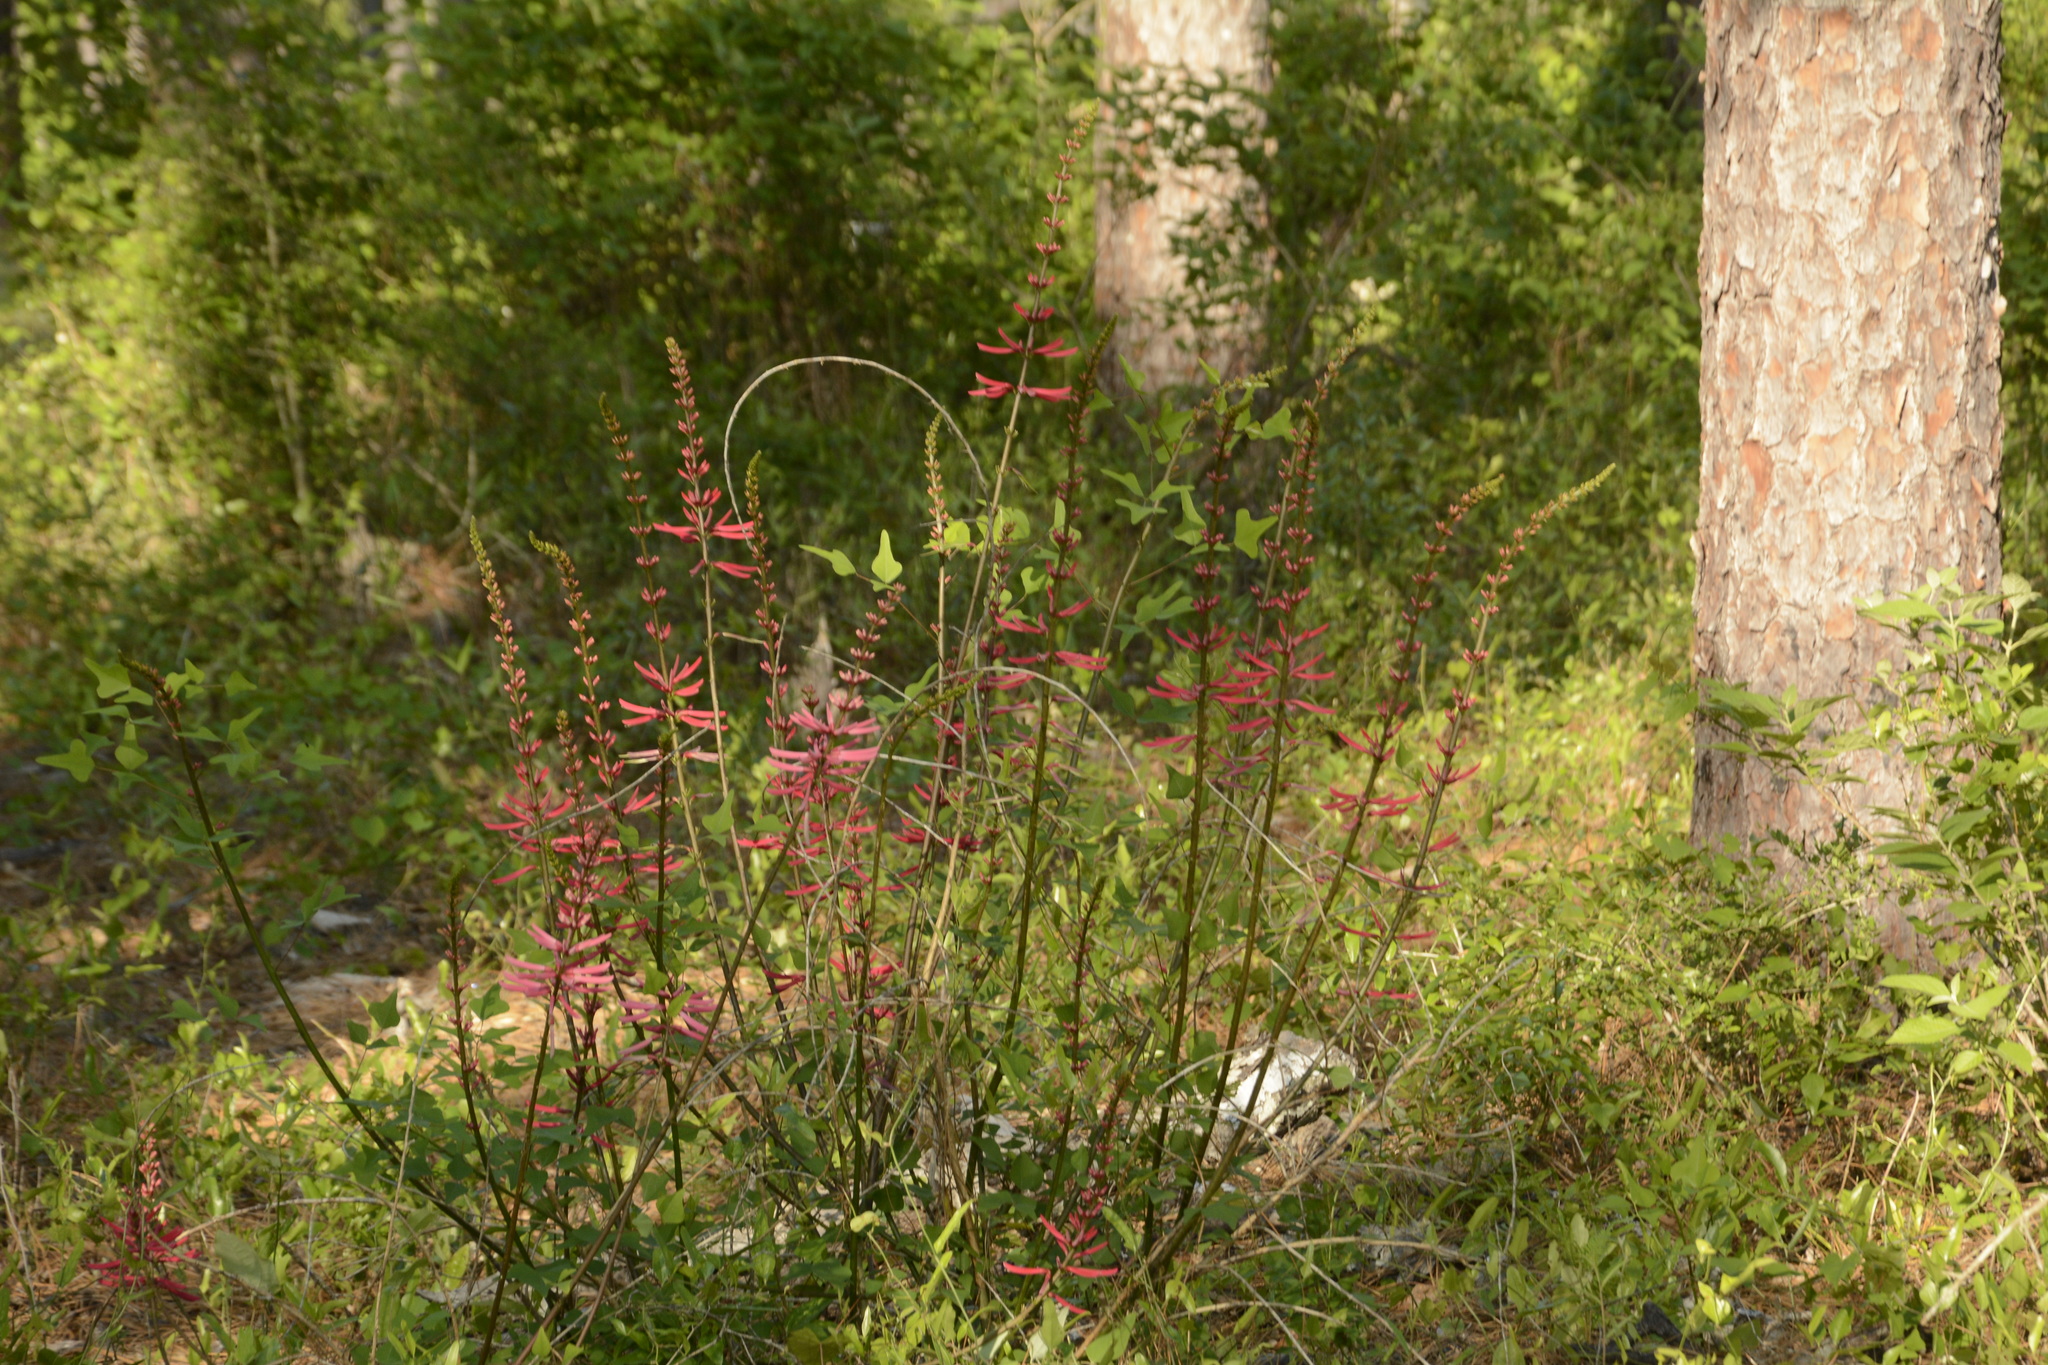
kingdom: Plantae
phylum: Tracheophyta
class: Magnoliopsida
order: Fabales
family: Fabaceae
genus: Erythrina
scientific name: Erythrina herbacea
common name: Coral-bean
